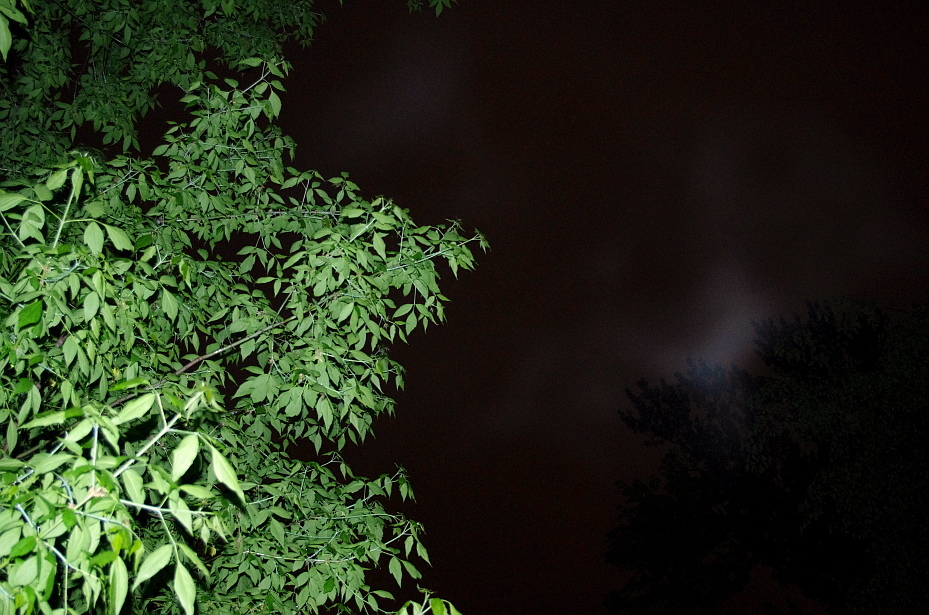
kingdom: Plantae
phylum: Tracheophyta
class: Magnoliopsida
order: Sapindales
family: Sapindaceae
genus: Acer
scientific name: Acer negundo
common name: Ashleaf maple
